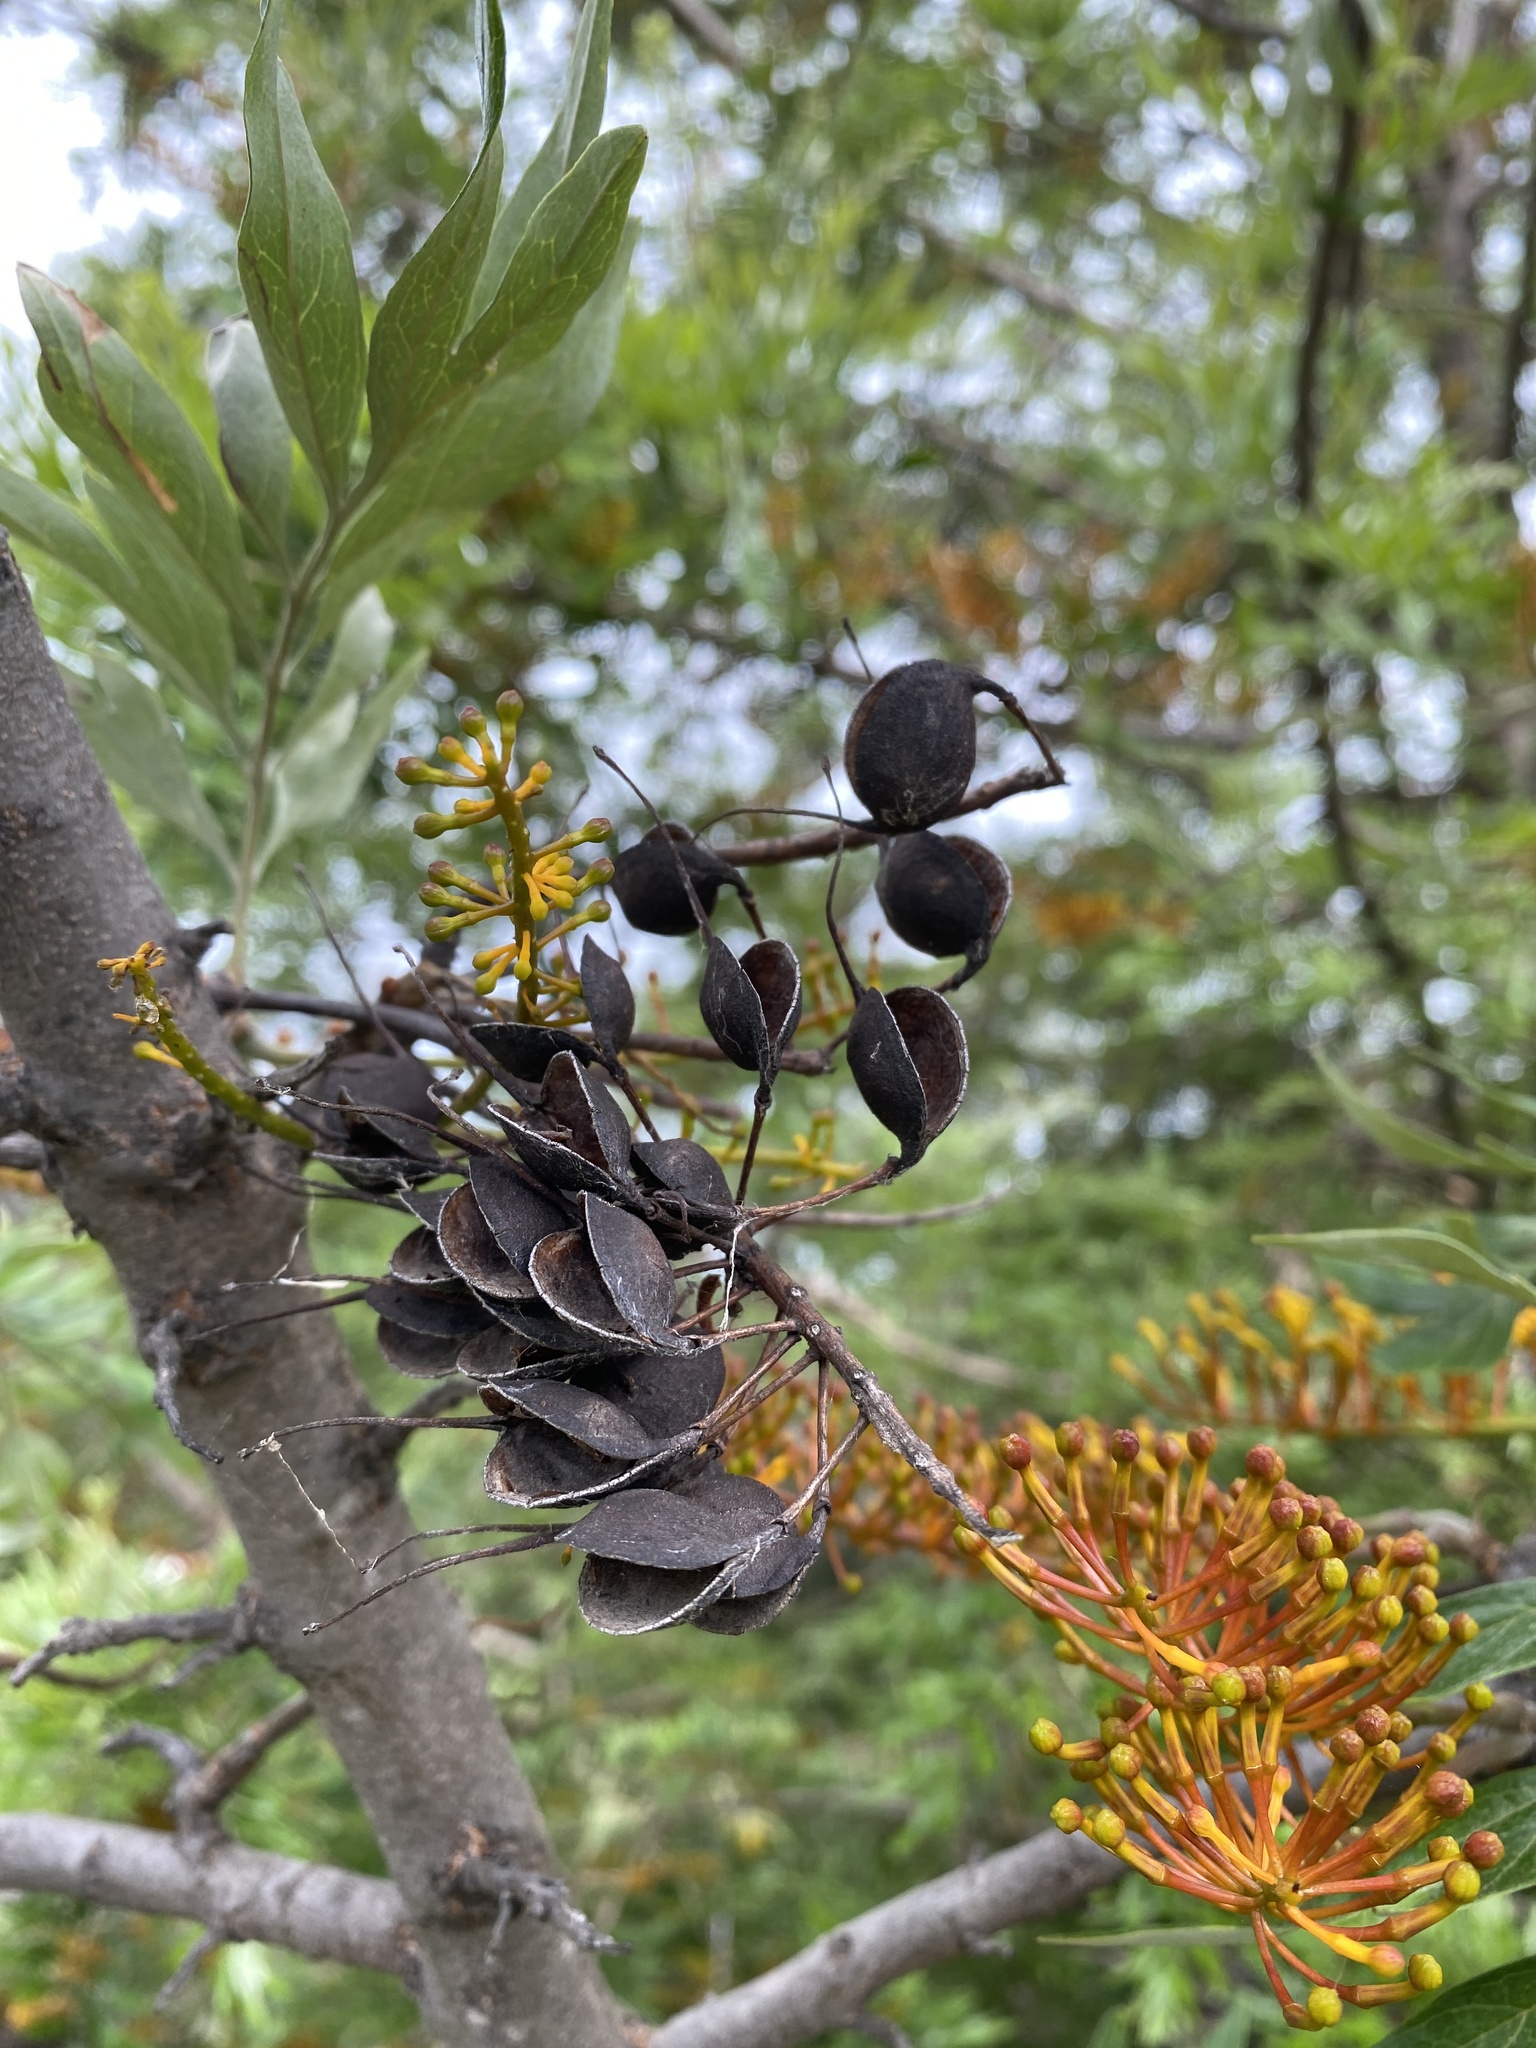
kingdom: Plantae
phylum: Tracheophyta
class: Magnoliopsida
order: Proteales
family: Proteaceae
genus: Grevillea
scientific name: Grevillea robusta
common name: Silkoak
